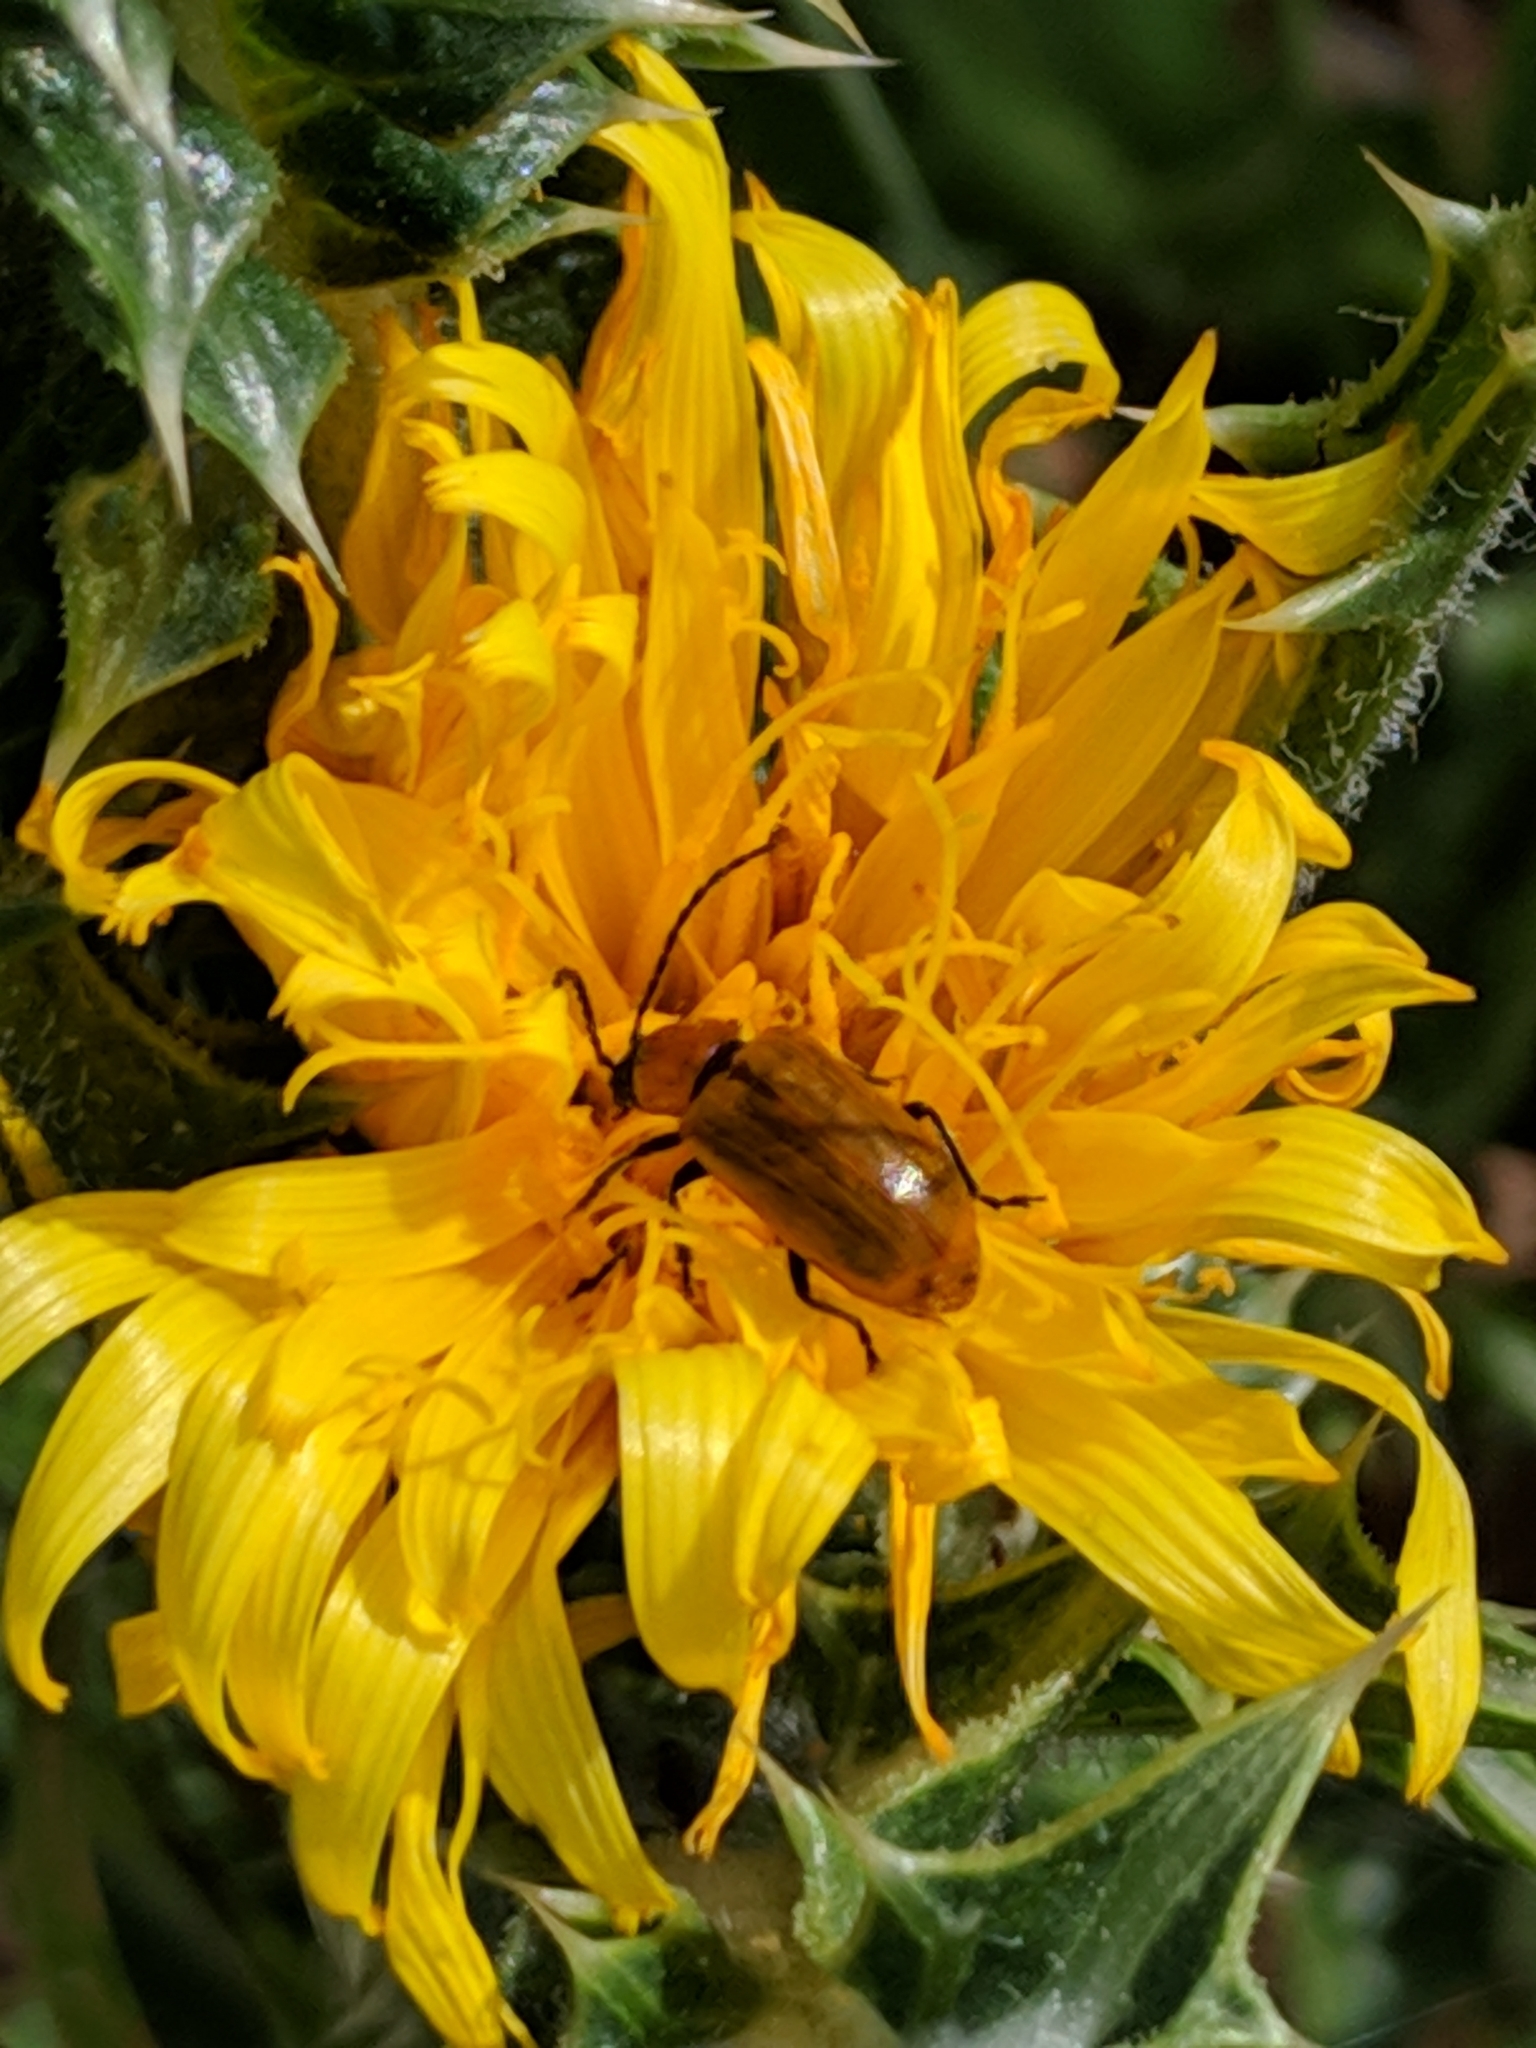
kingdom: Animalia
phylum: Arthropoda
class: Insecta
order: Coleoptera
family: Chrysomelidae
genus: Exosoma
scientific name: Exosoma lusitanicum
